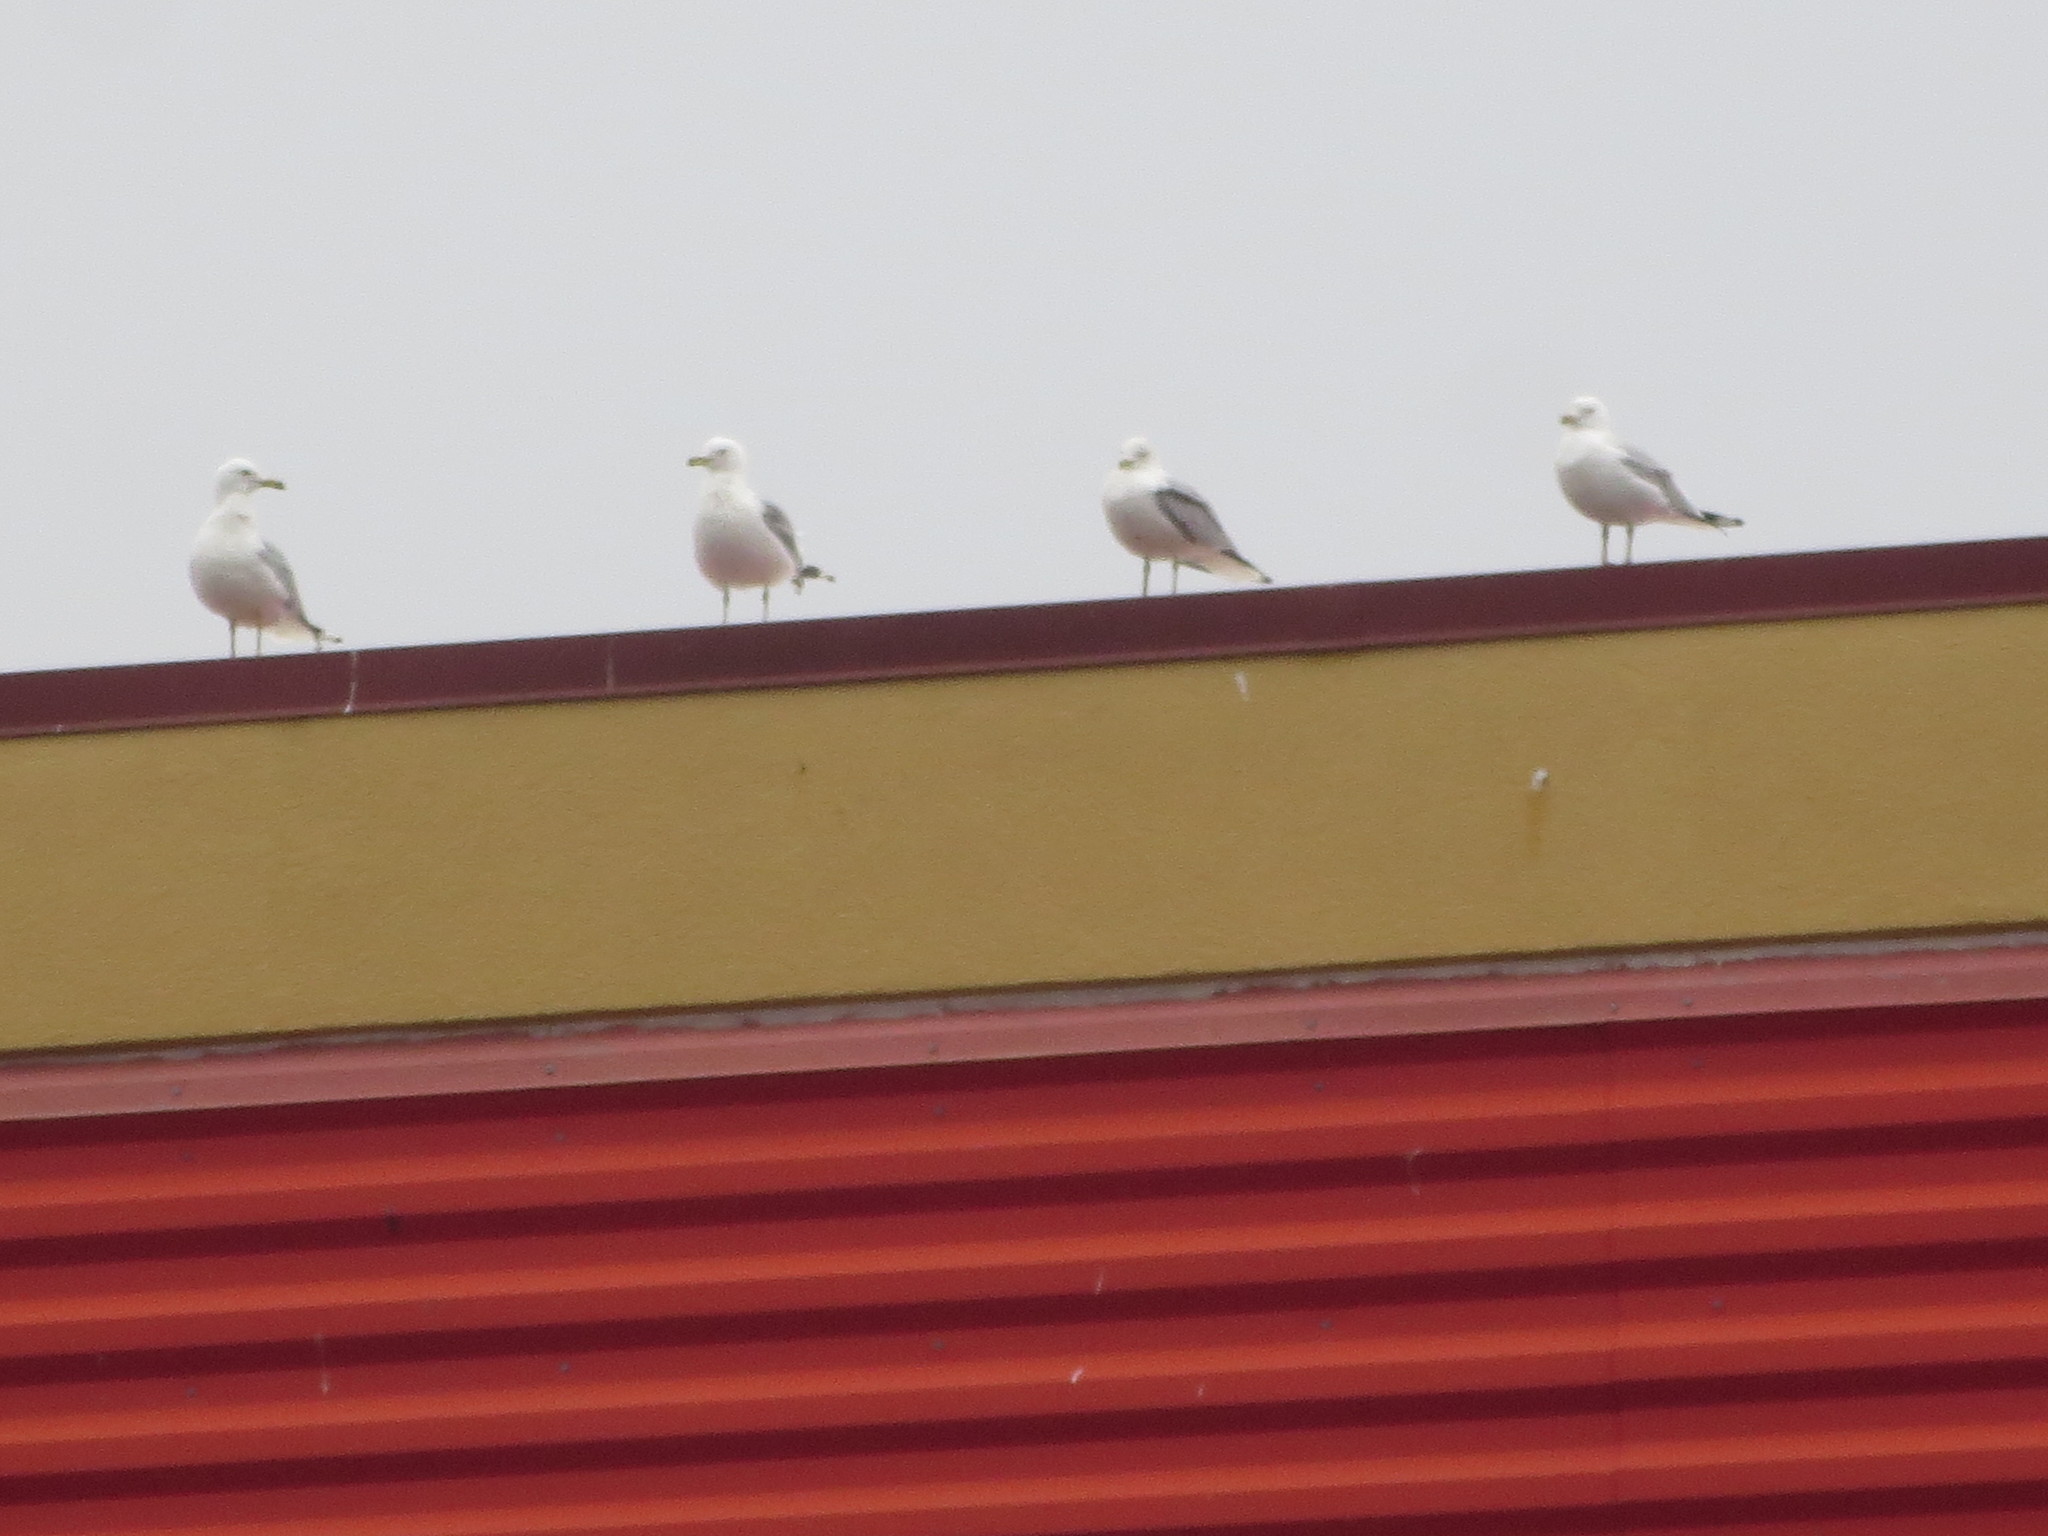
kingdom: Animalia
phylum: Chordata
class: Aves
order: Charadriiformes
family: Laridae
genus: Larus
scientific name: Larus delawarensis
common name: Ring-billed gull
